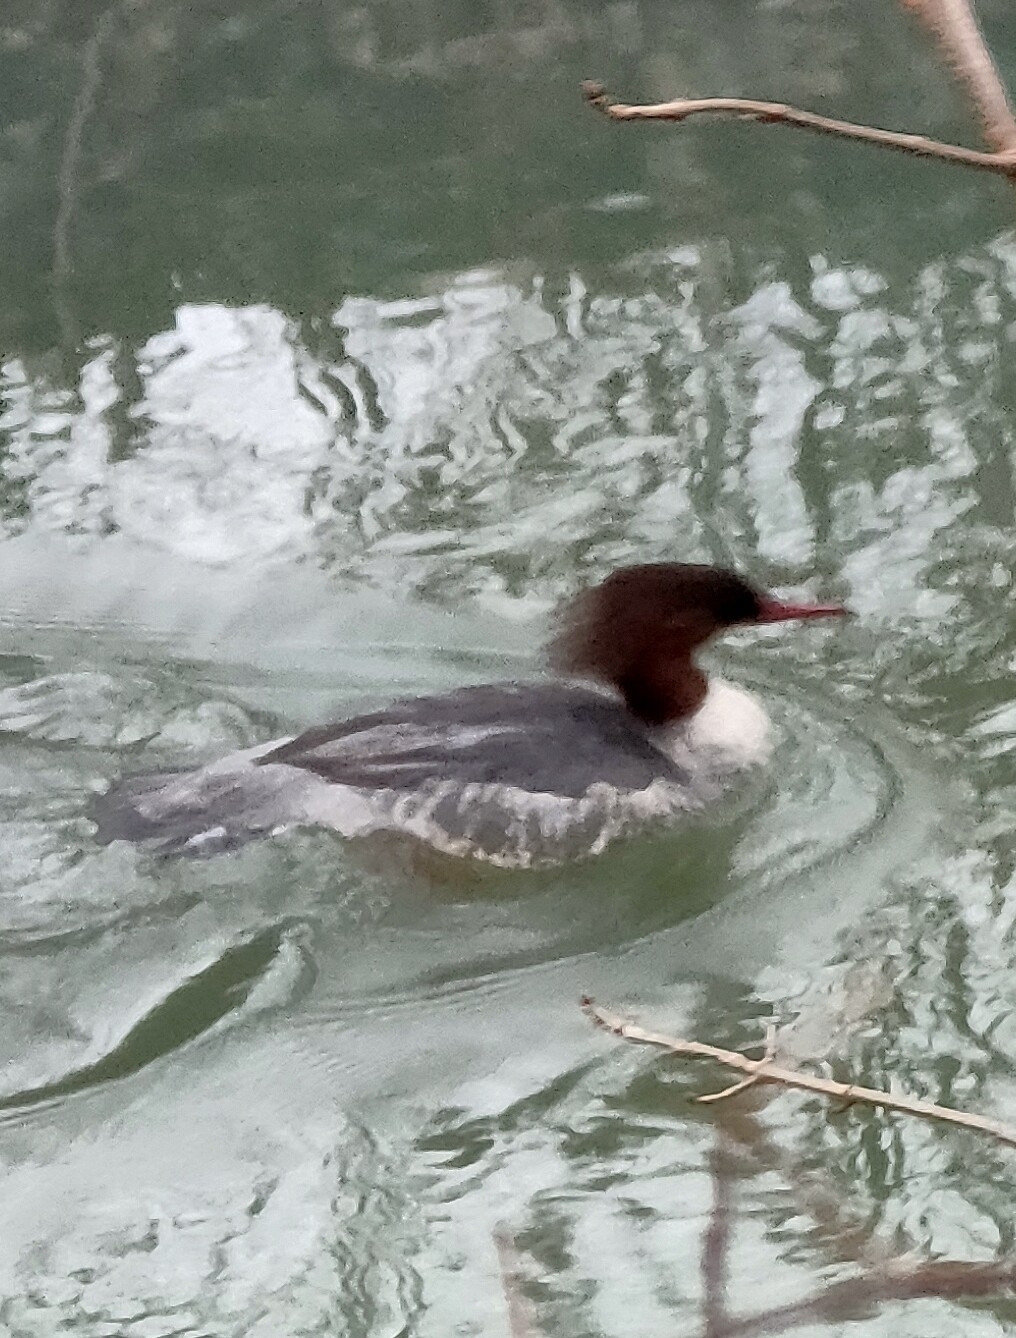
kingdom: Animalia
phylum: Chordata
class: Aves
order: Anseriformes
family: Anatidae
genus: Mergus
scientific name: Mergus merganser
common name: Common merganser
